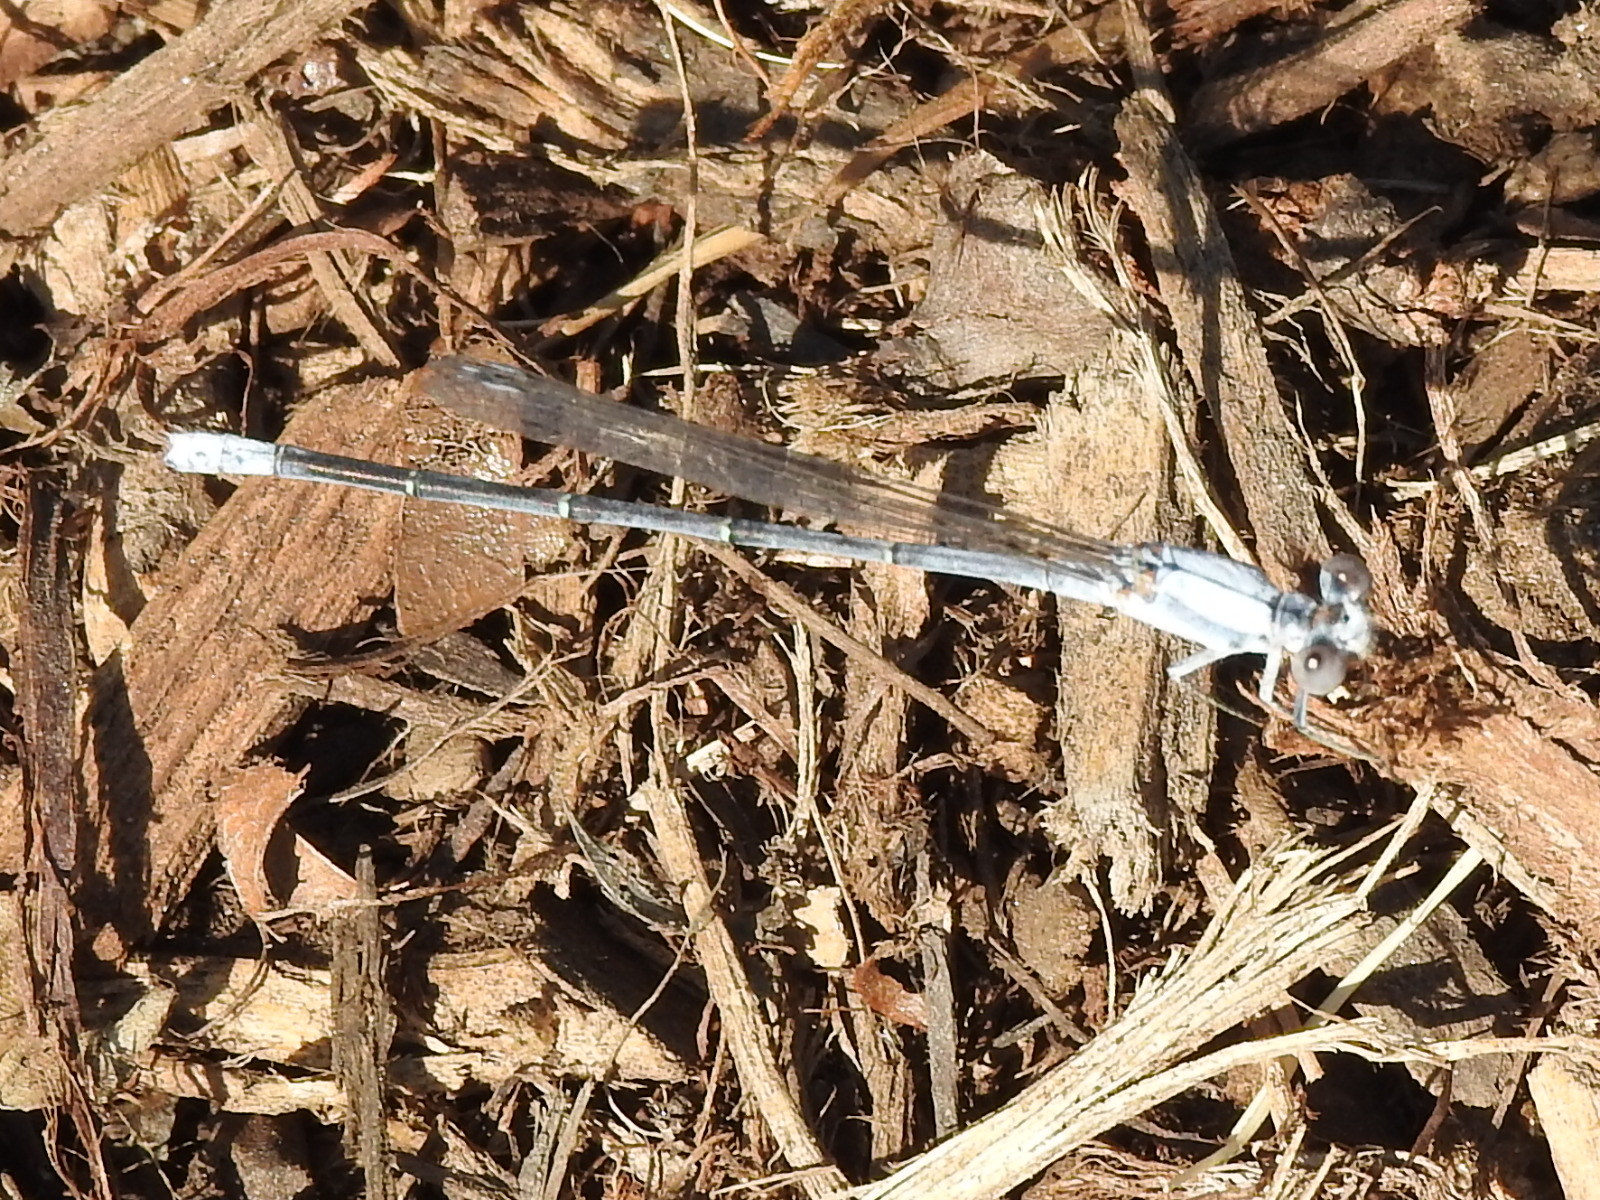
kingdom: Animalia
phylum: Arthropoda
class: Insecta
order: Odonata
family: Coenagrionidae
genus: Argia
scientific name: Argia moesta
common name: Powdered dancer
